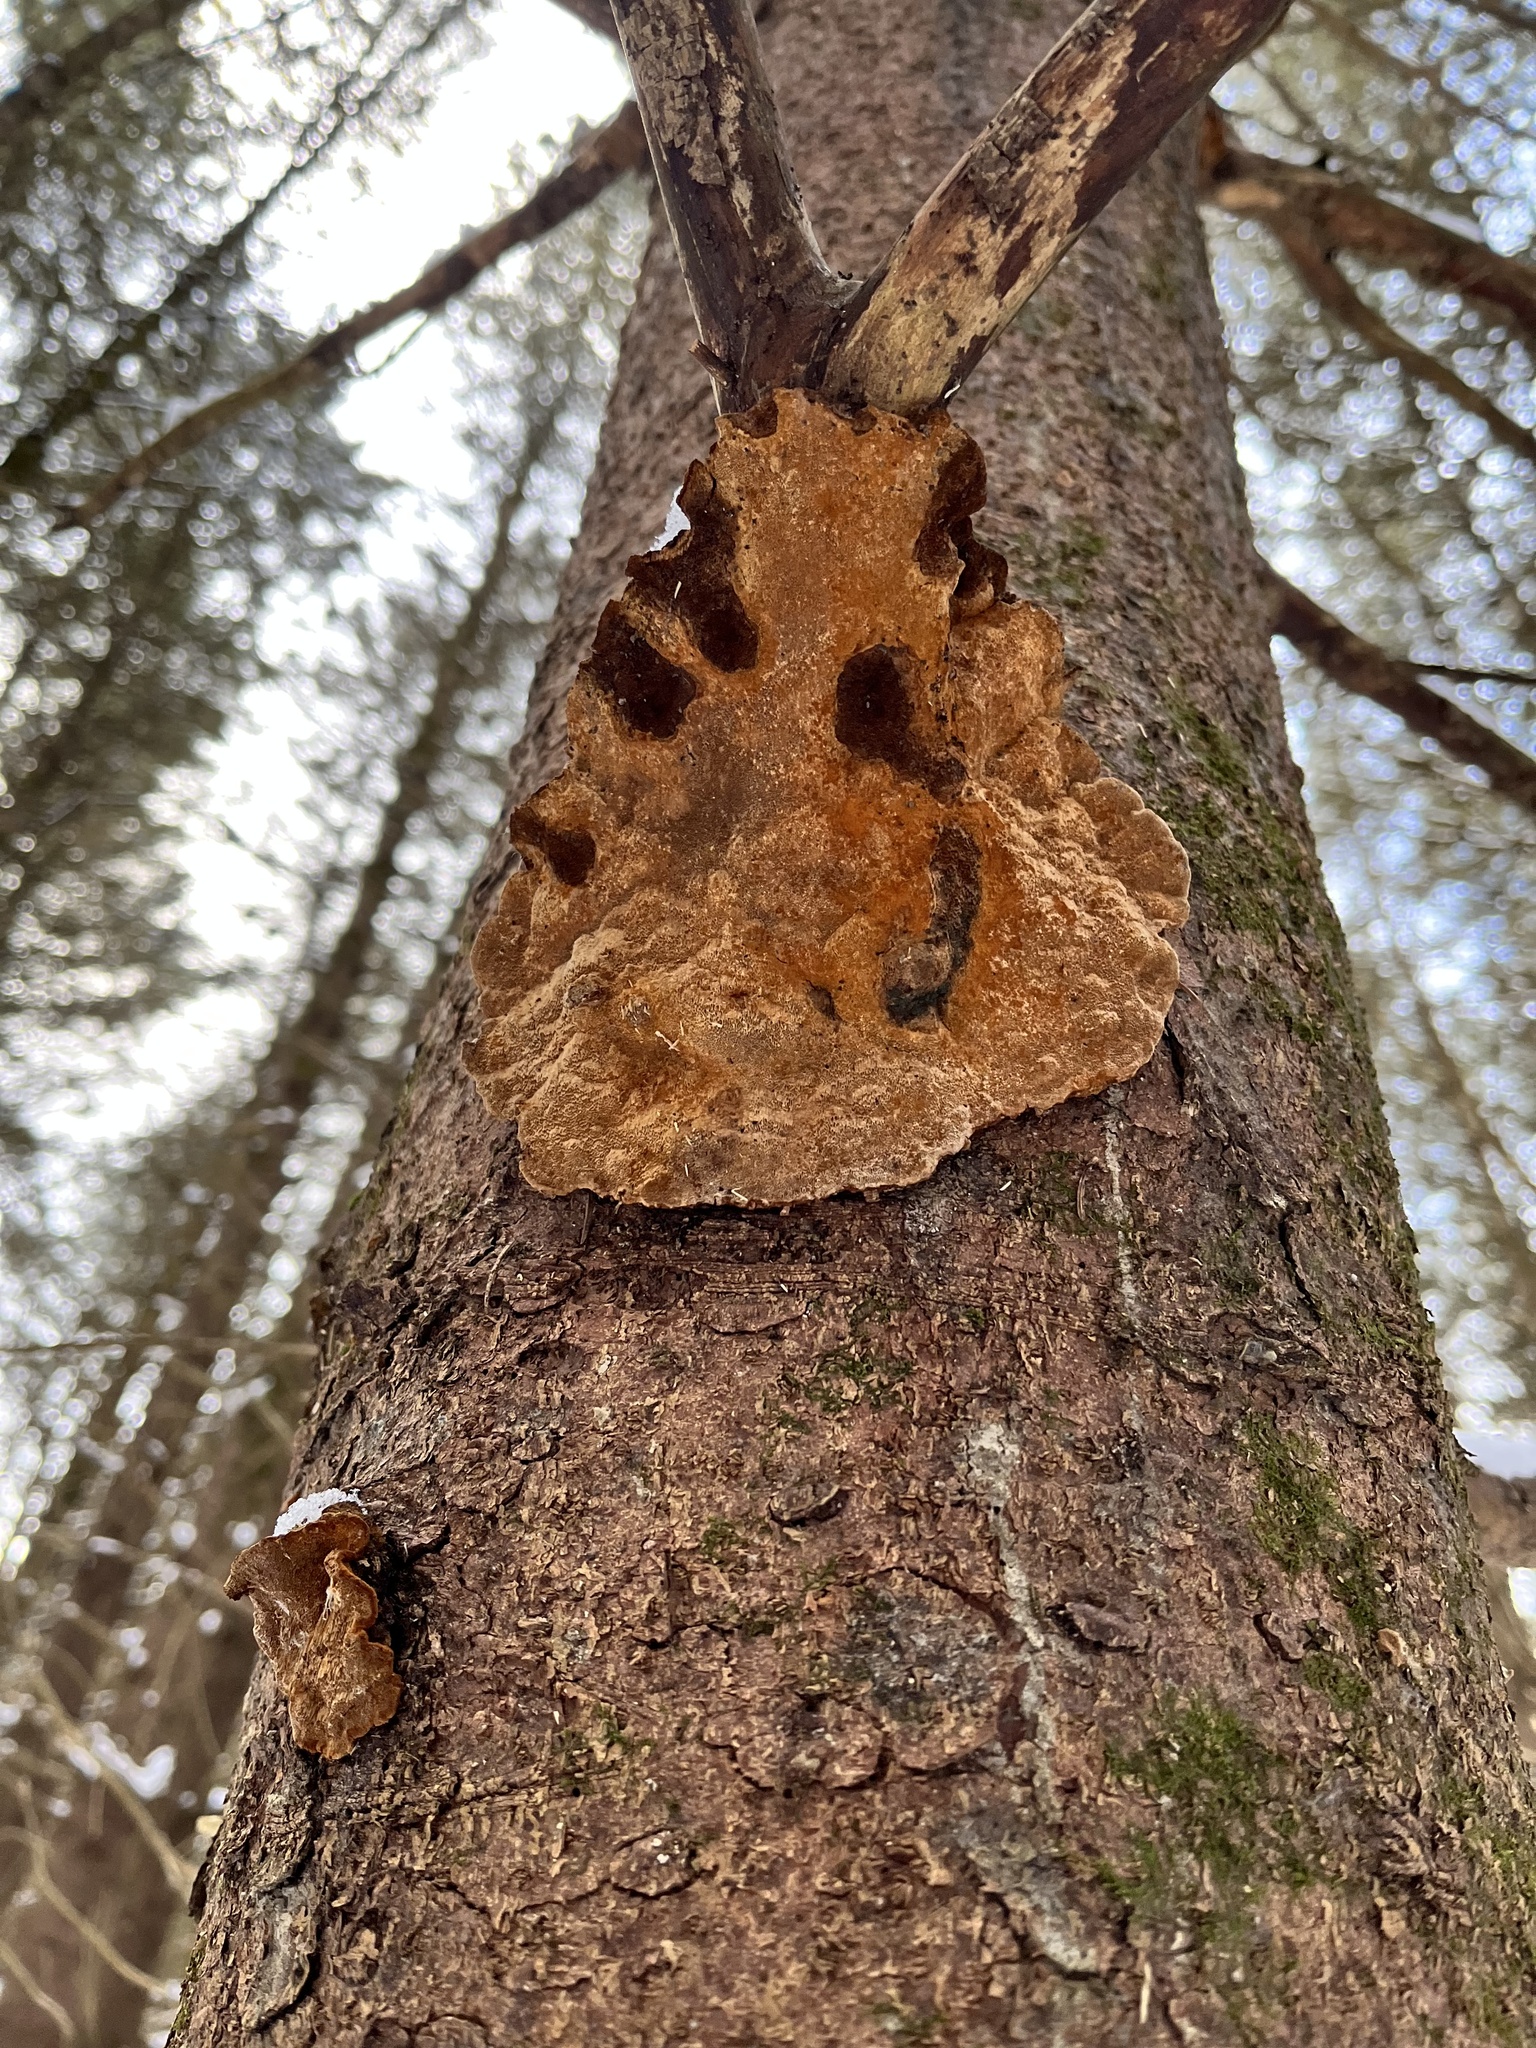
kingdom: Fungi
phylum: Basidiomycota
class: Agaricomycetes
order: Hymenochaetales
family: Hymenochaetaceae
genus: Phellinus
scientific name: Phellinus tremulae
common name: Aspen bracket
